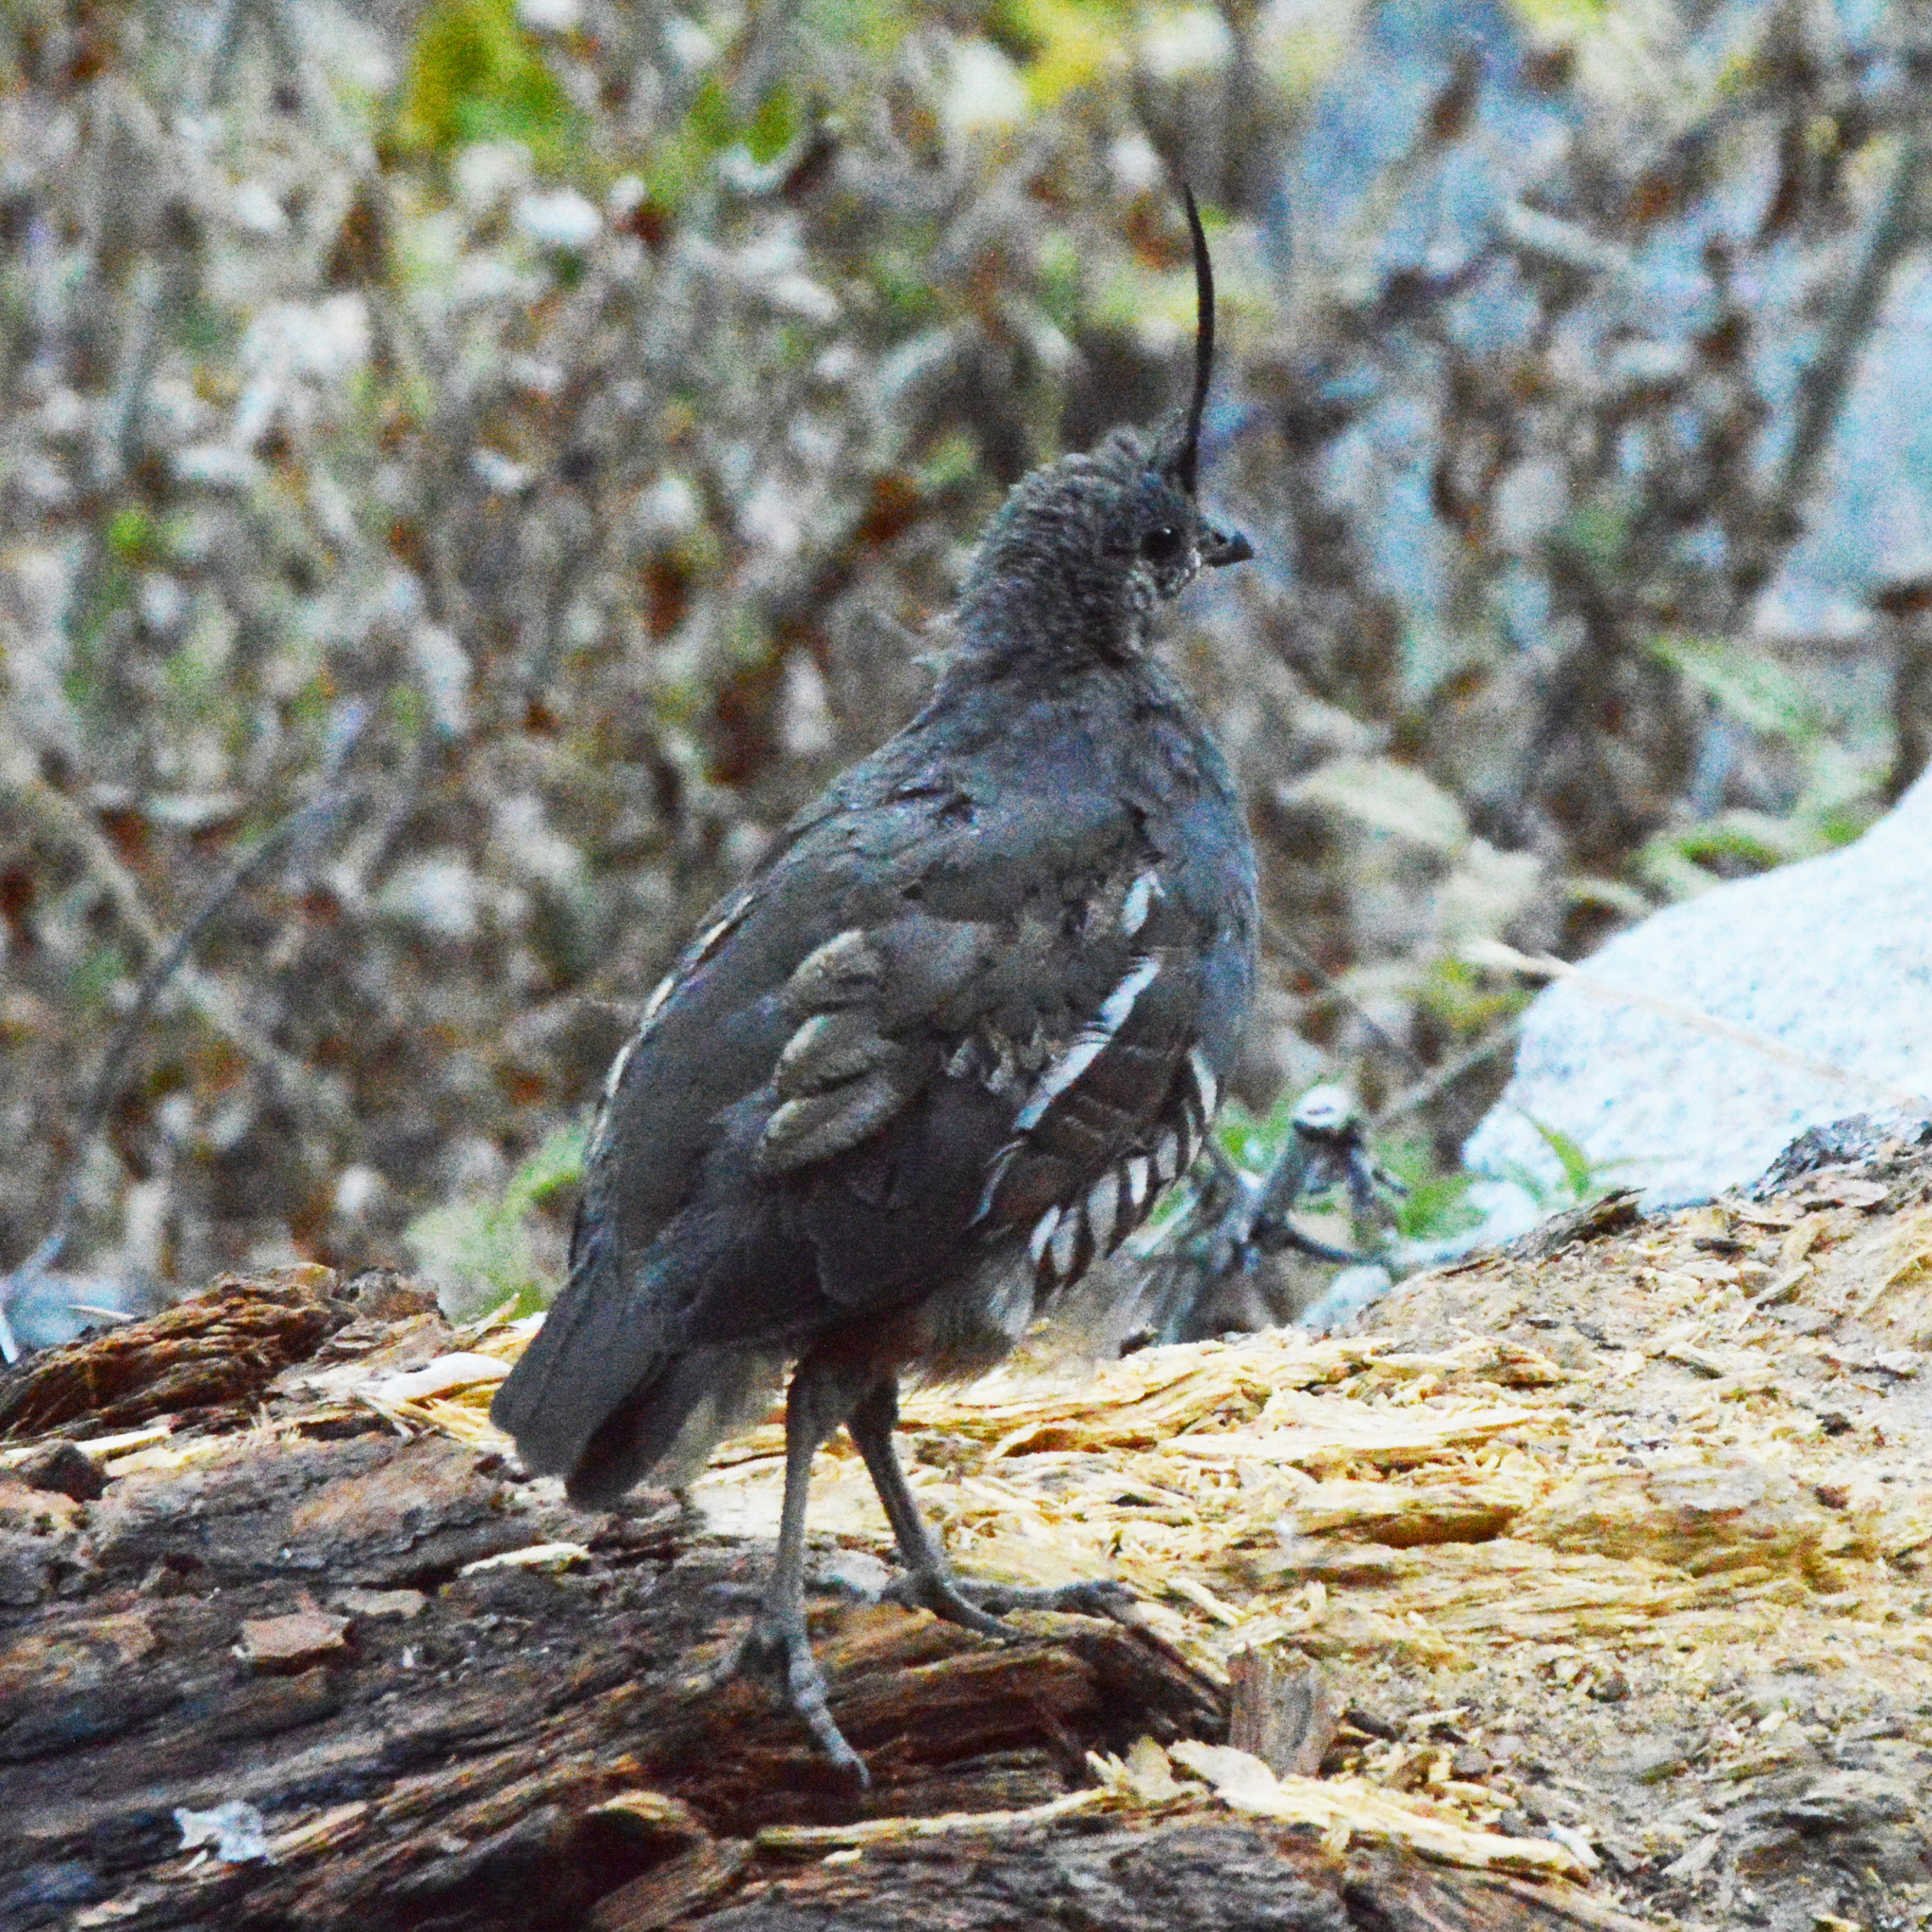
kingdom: Animalia
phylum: Chordata
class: Aves
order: Galliformes
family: Odontophoridae
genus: Oreortyx
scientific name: Oreortyx pictus
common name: Mountain quail
